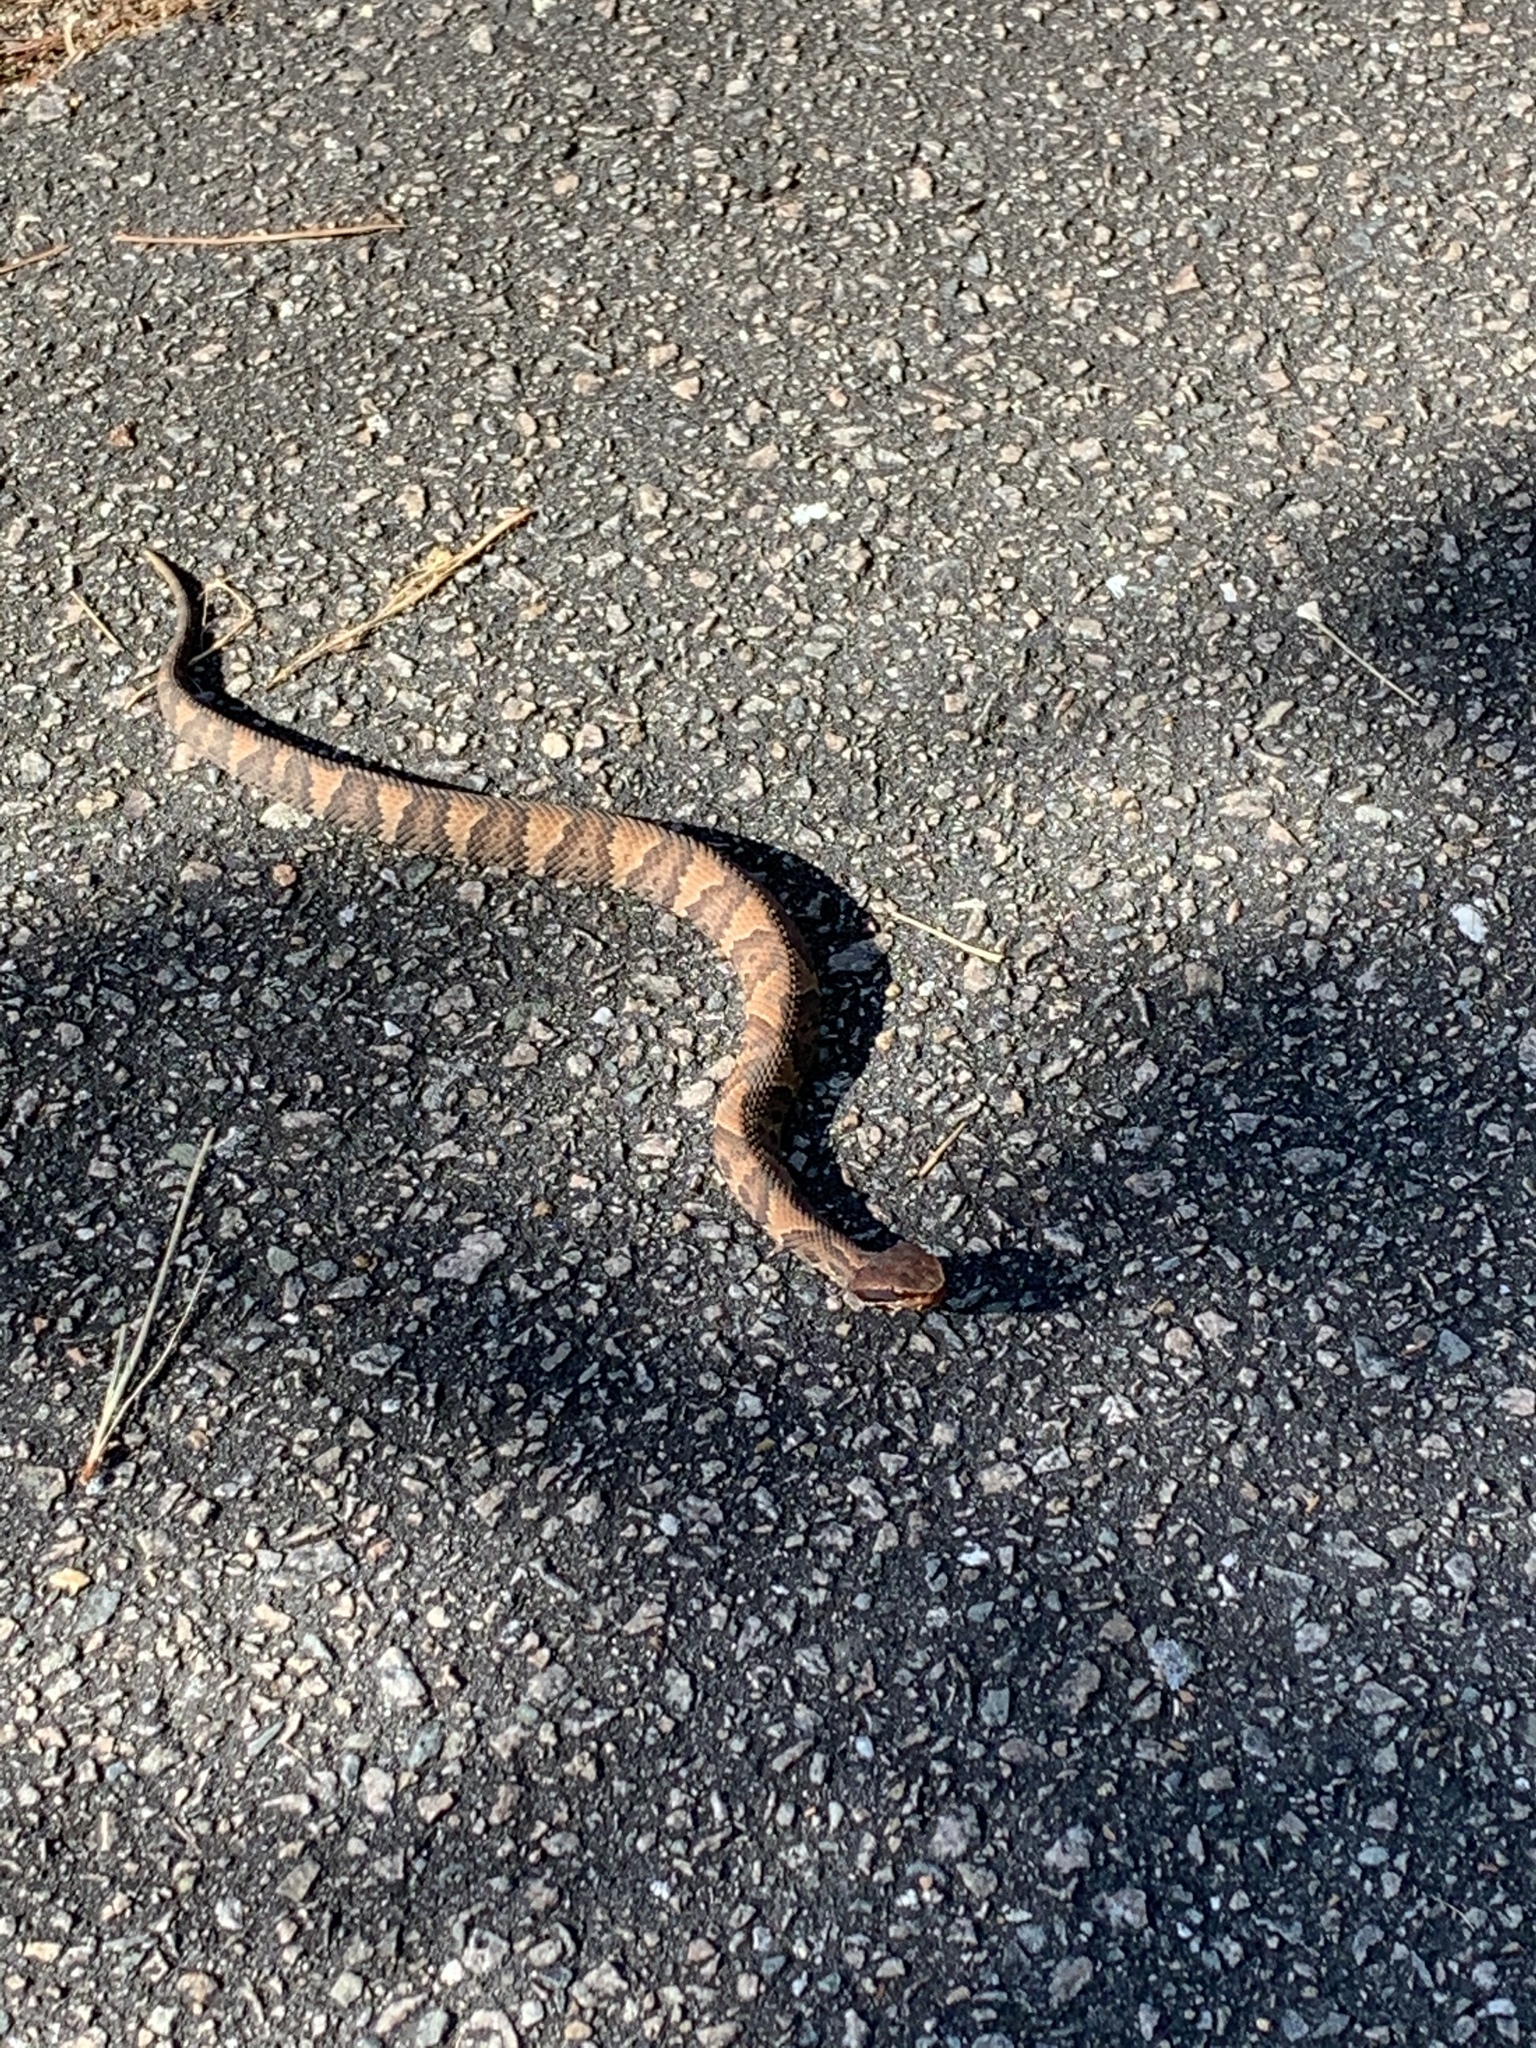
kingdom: Animalia
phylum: Chordata
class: Squamata
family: Viperidae
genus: Agkistrodon
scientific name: Agkistrodon piscivorus
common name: Cottonmouth
